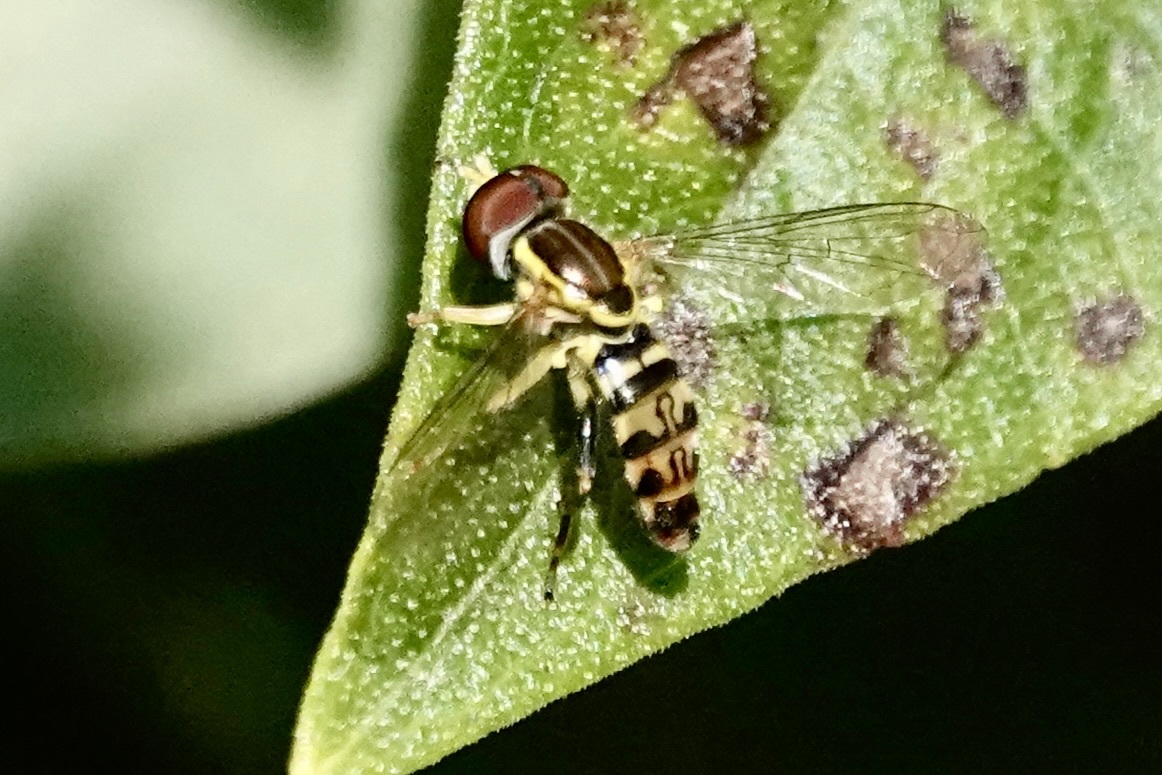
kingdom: Animalia
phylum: Arthropoda
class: Insecta
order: Diptera
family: Syrphidae
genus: Toxomerus
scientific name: Toxomerus geminatus
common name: Eastern calligrapher
